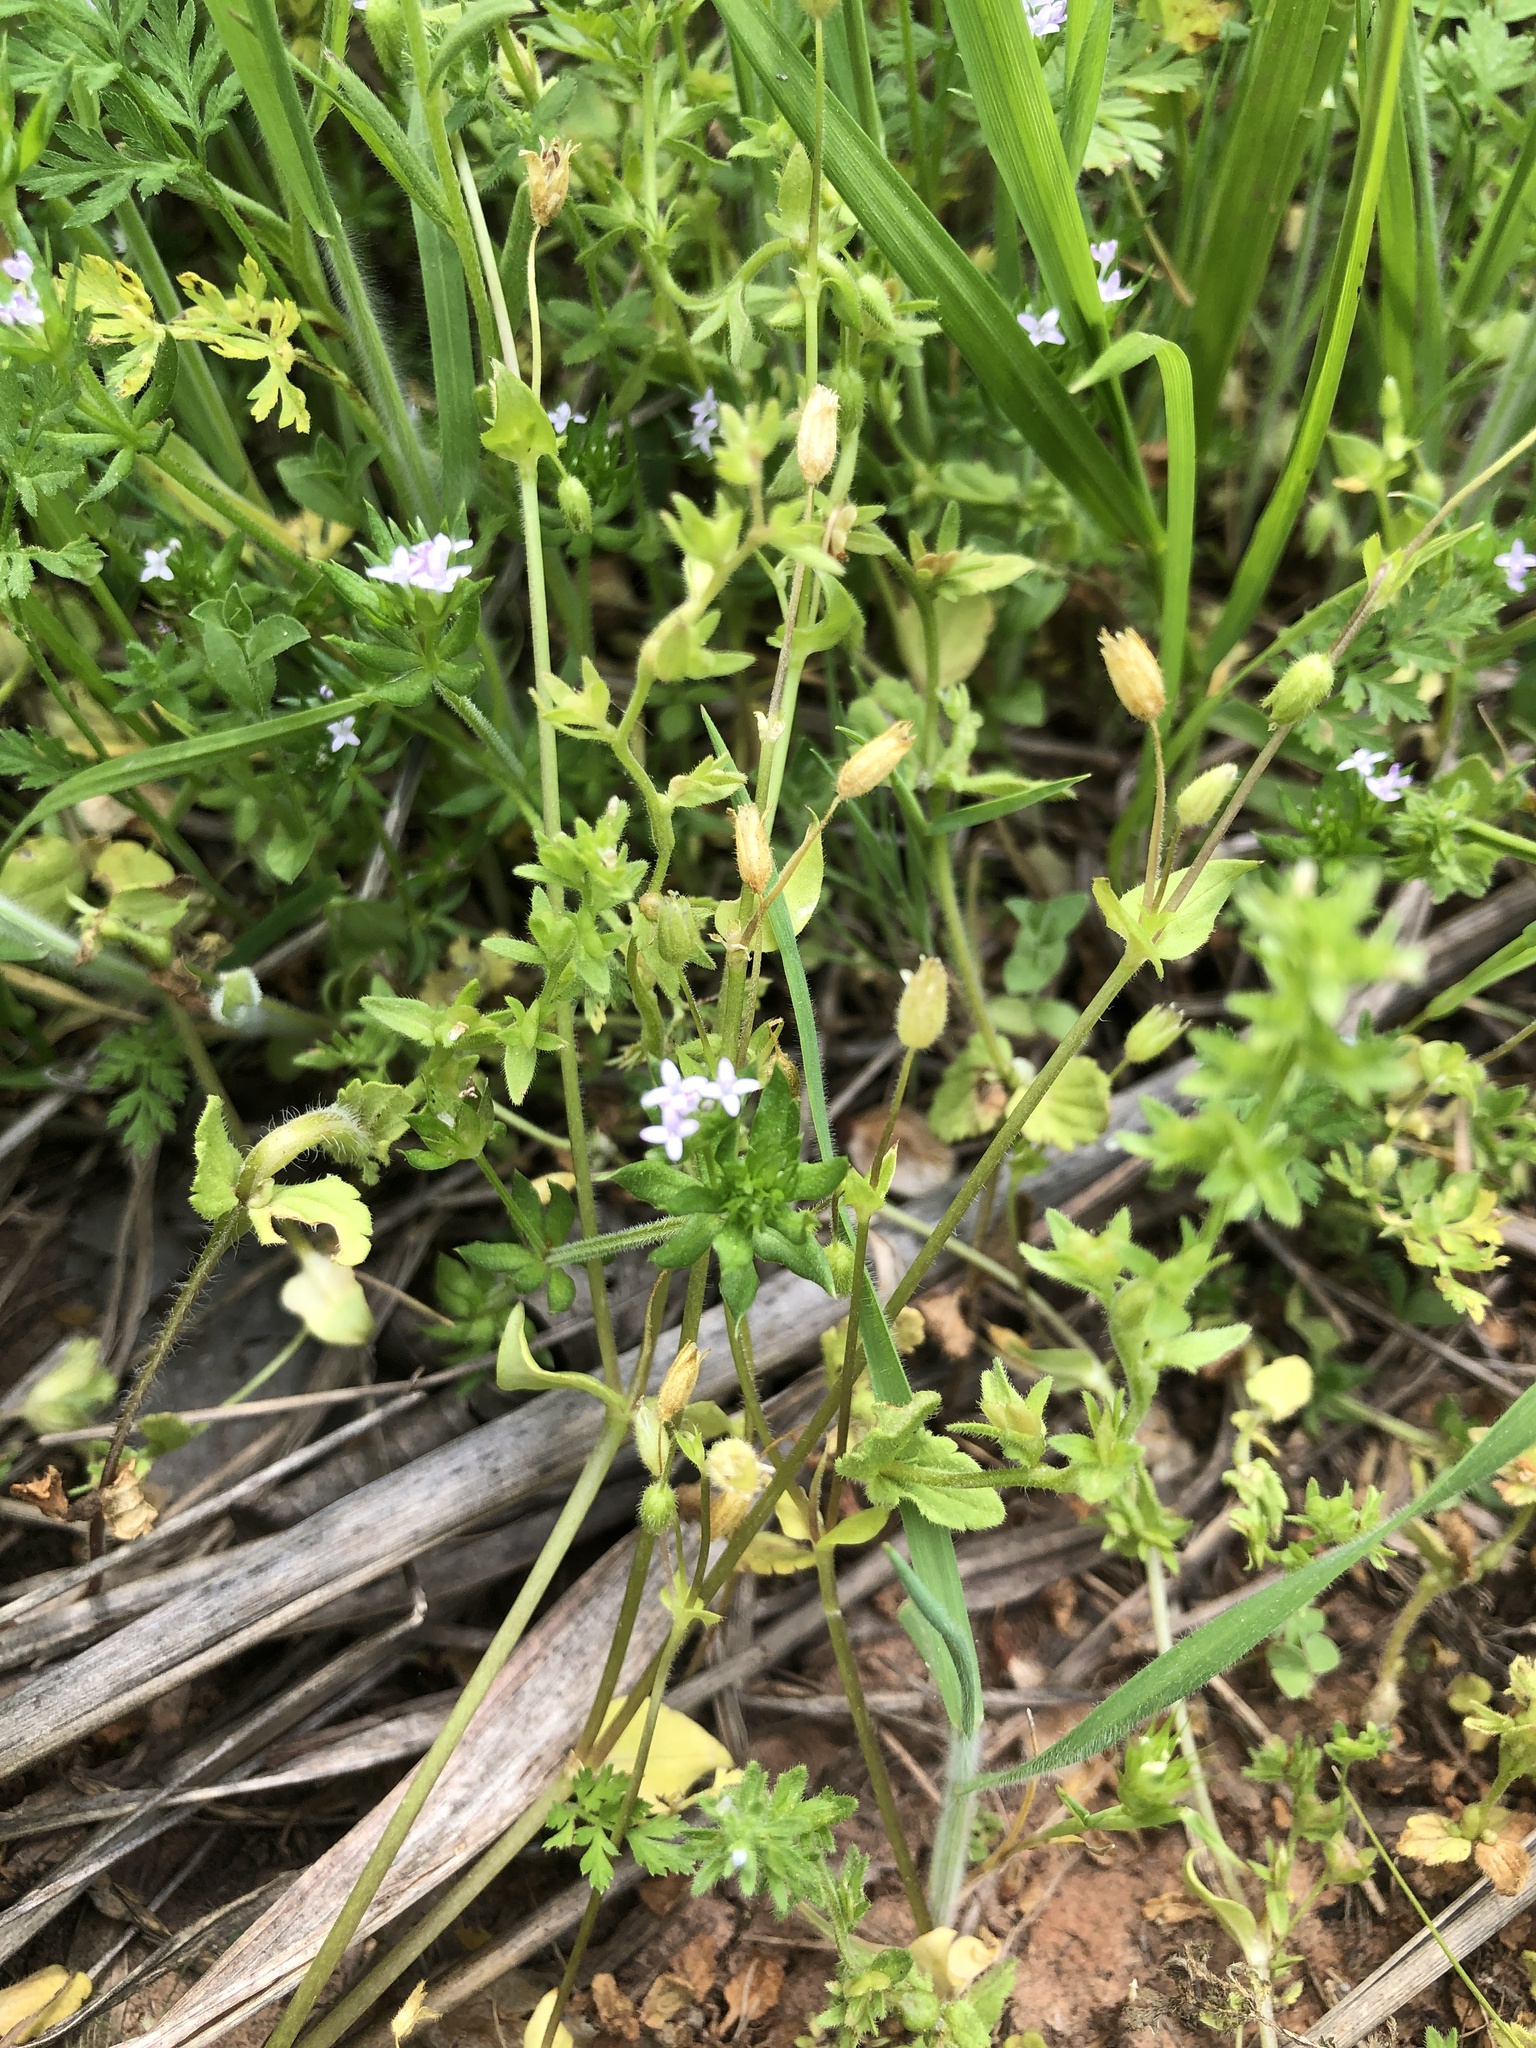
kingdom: Plantae
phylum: Tracheophyta
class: Magnoliopsida
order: Gentianales
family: Rubiaceae
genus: Sherardia
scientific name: Sherardia arvensis
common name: Field madder
